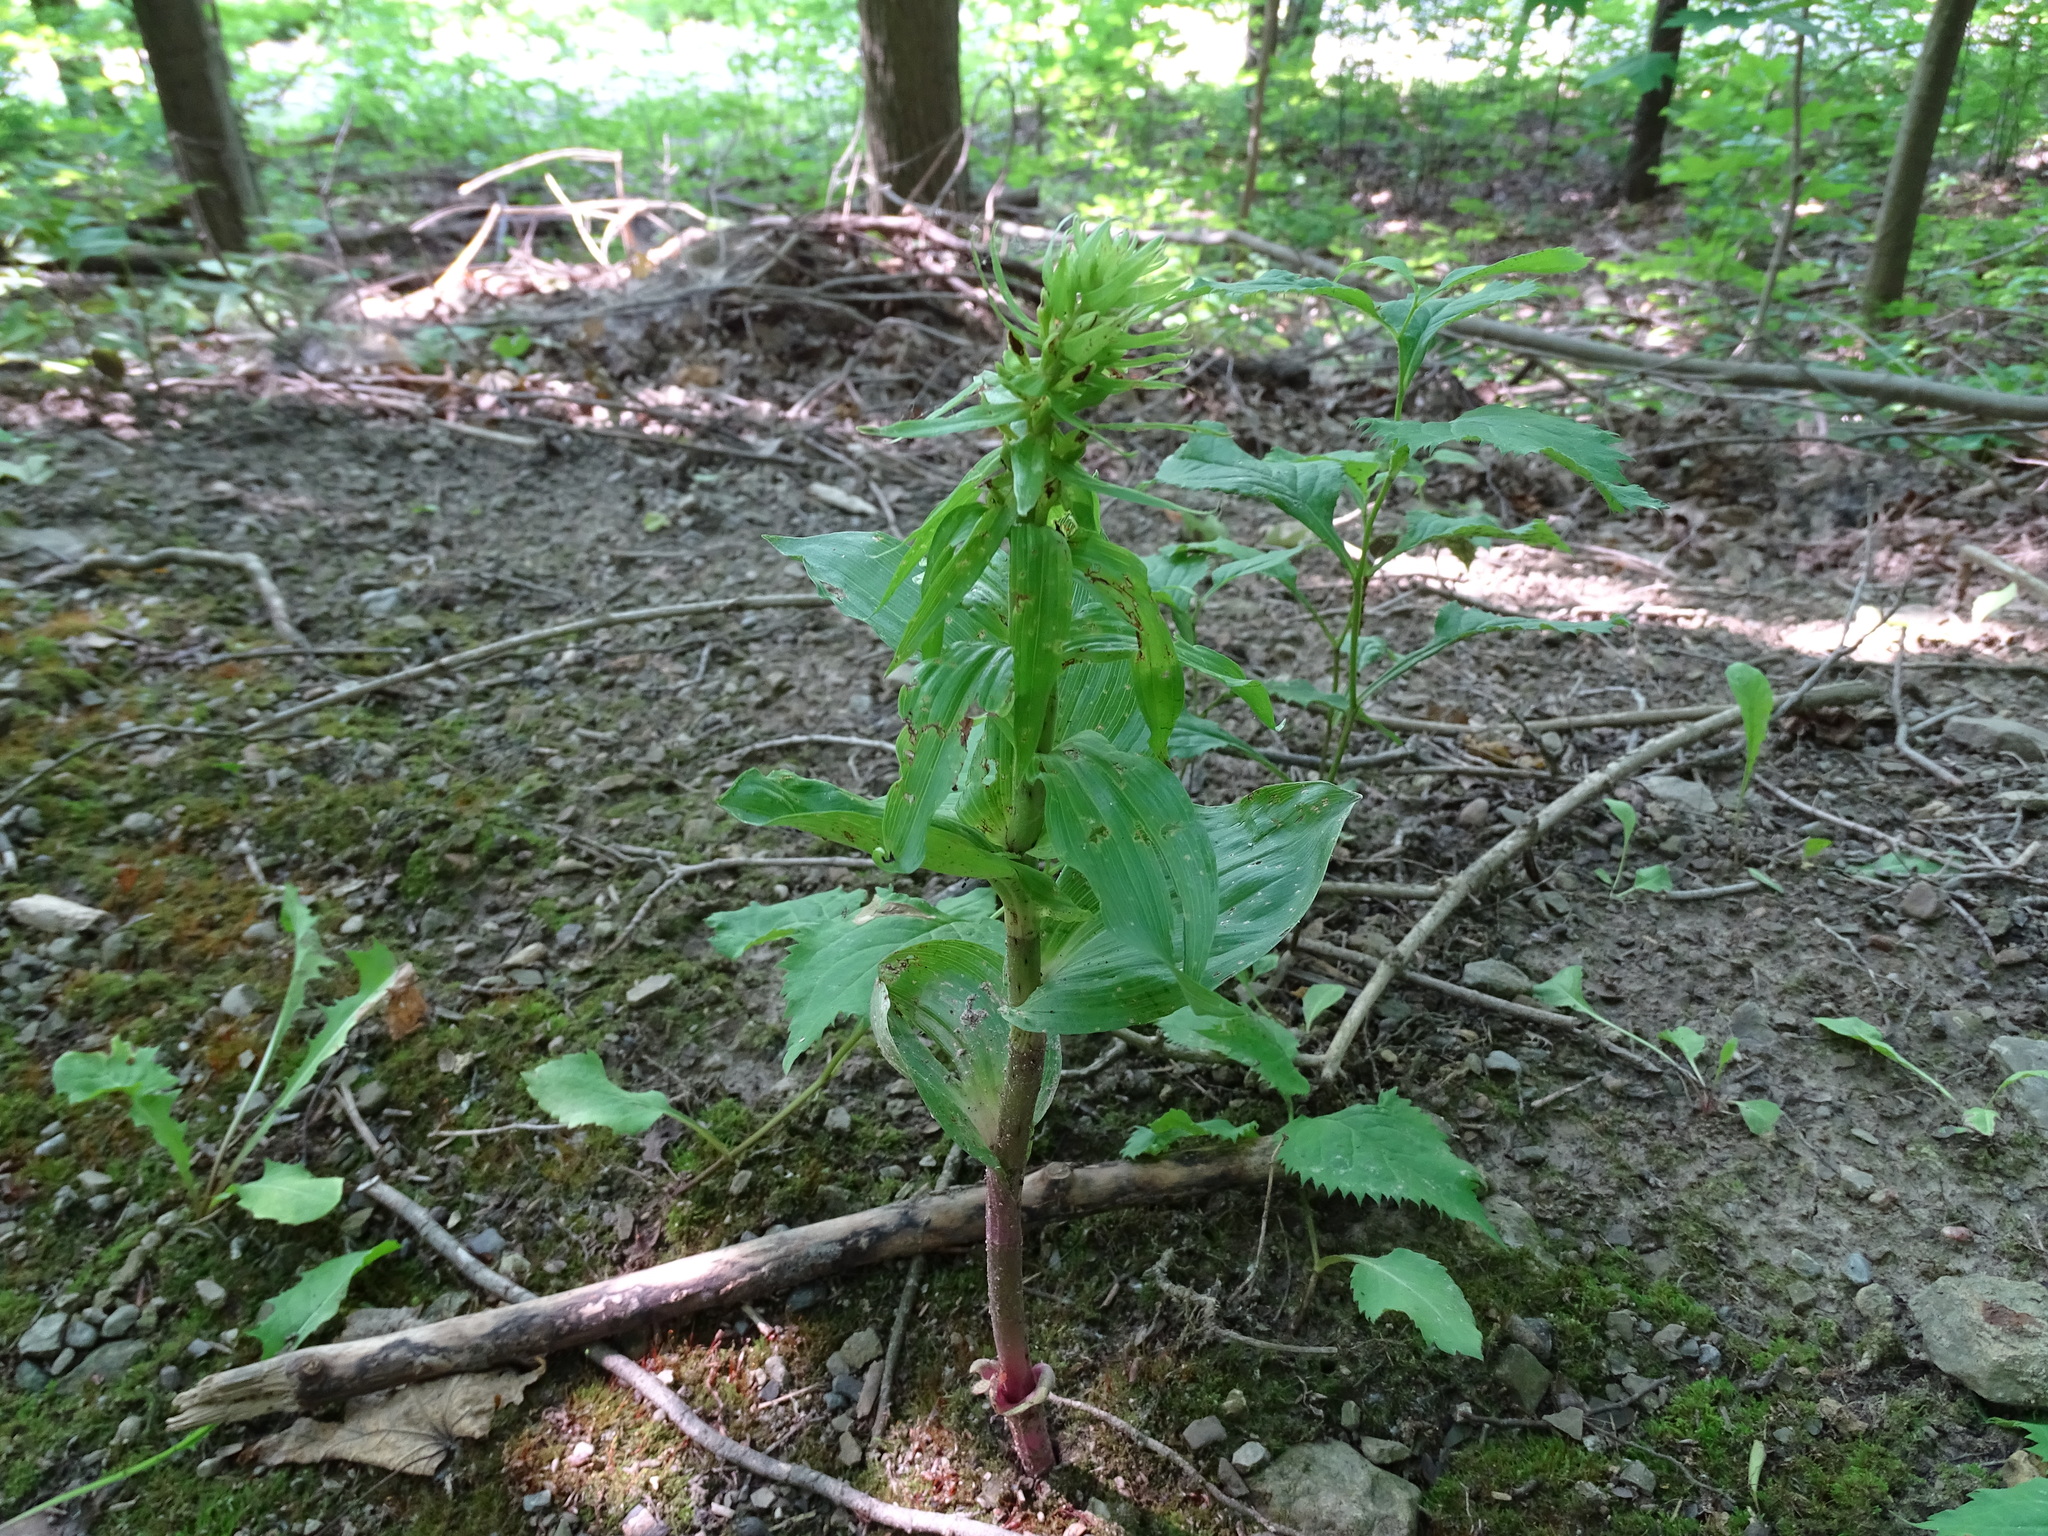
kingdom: Plantae
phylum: Tracheophyta
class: Liliopsida
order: Asparagales
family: Orchidaceae
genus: Epipactis
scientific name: Epipactis helleborine
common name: Broad-leaved helleborine
